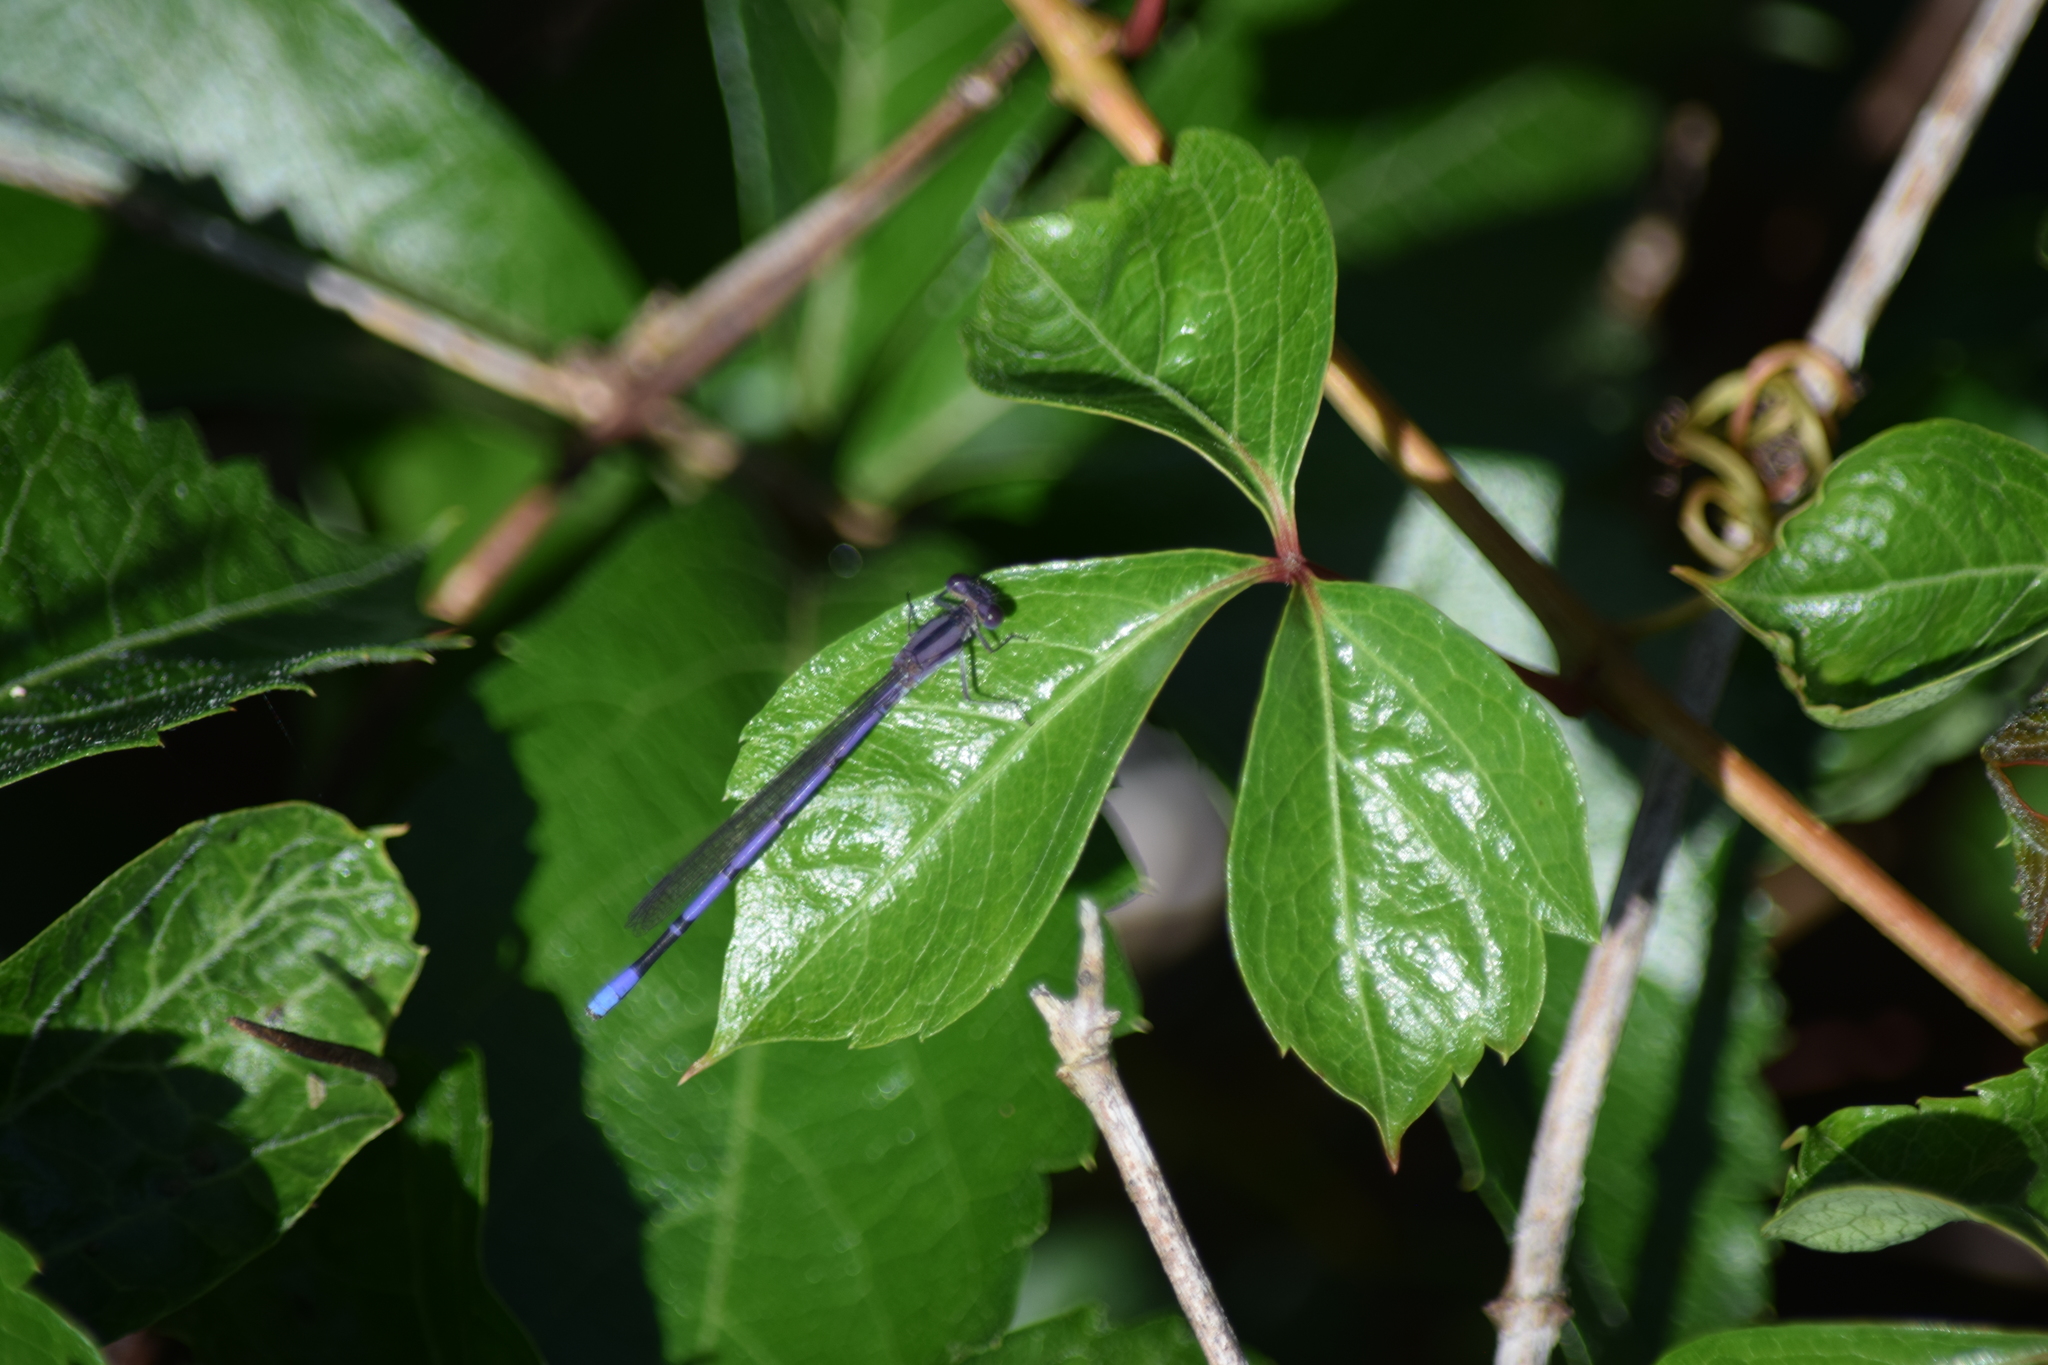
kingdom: Animalia
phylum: Arthropoda
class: Insecta
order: Odonata
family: Coenagrionidae
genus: Argia
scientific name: Argia fumipennis
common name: Variable dancer
